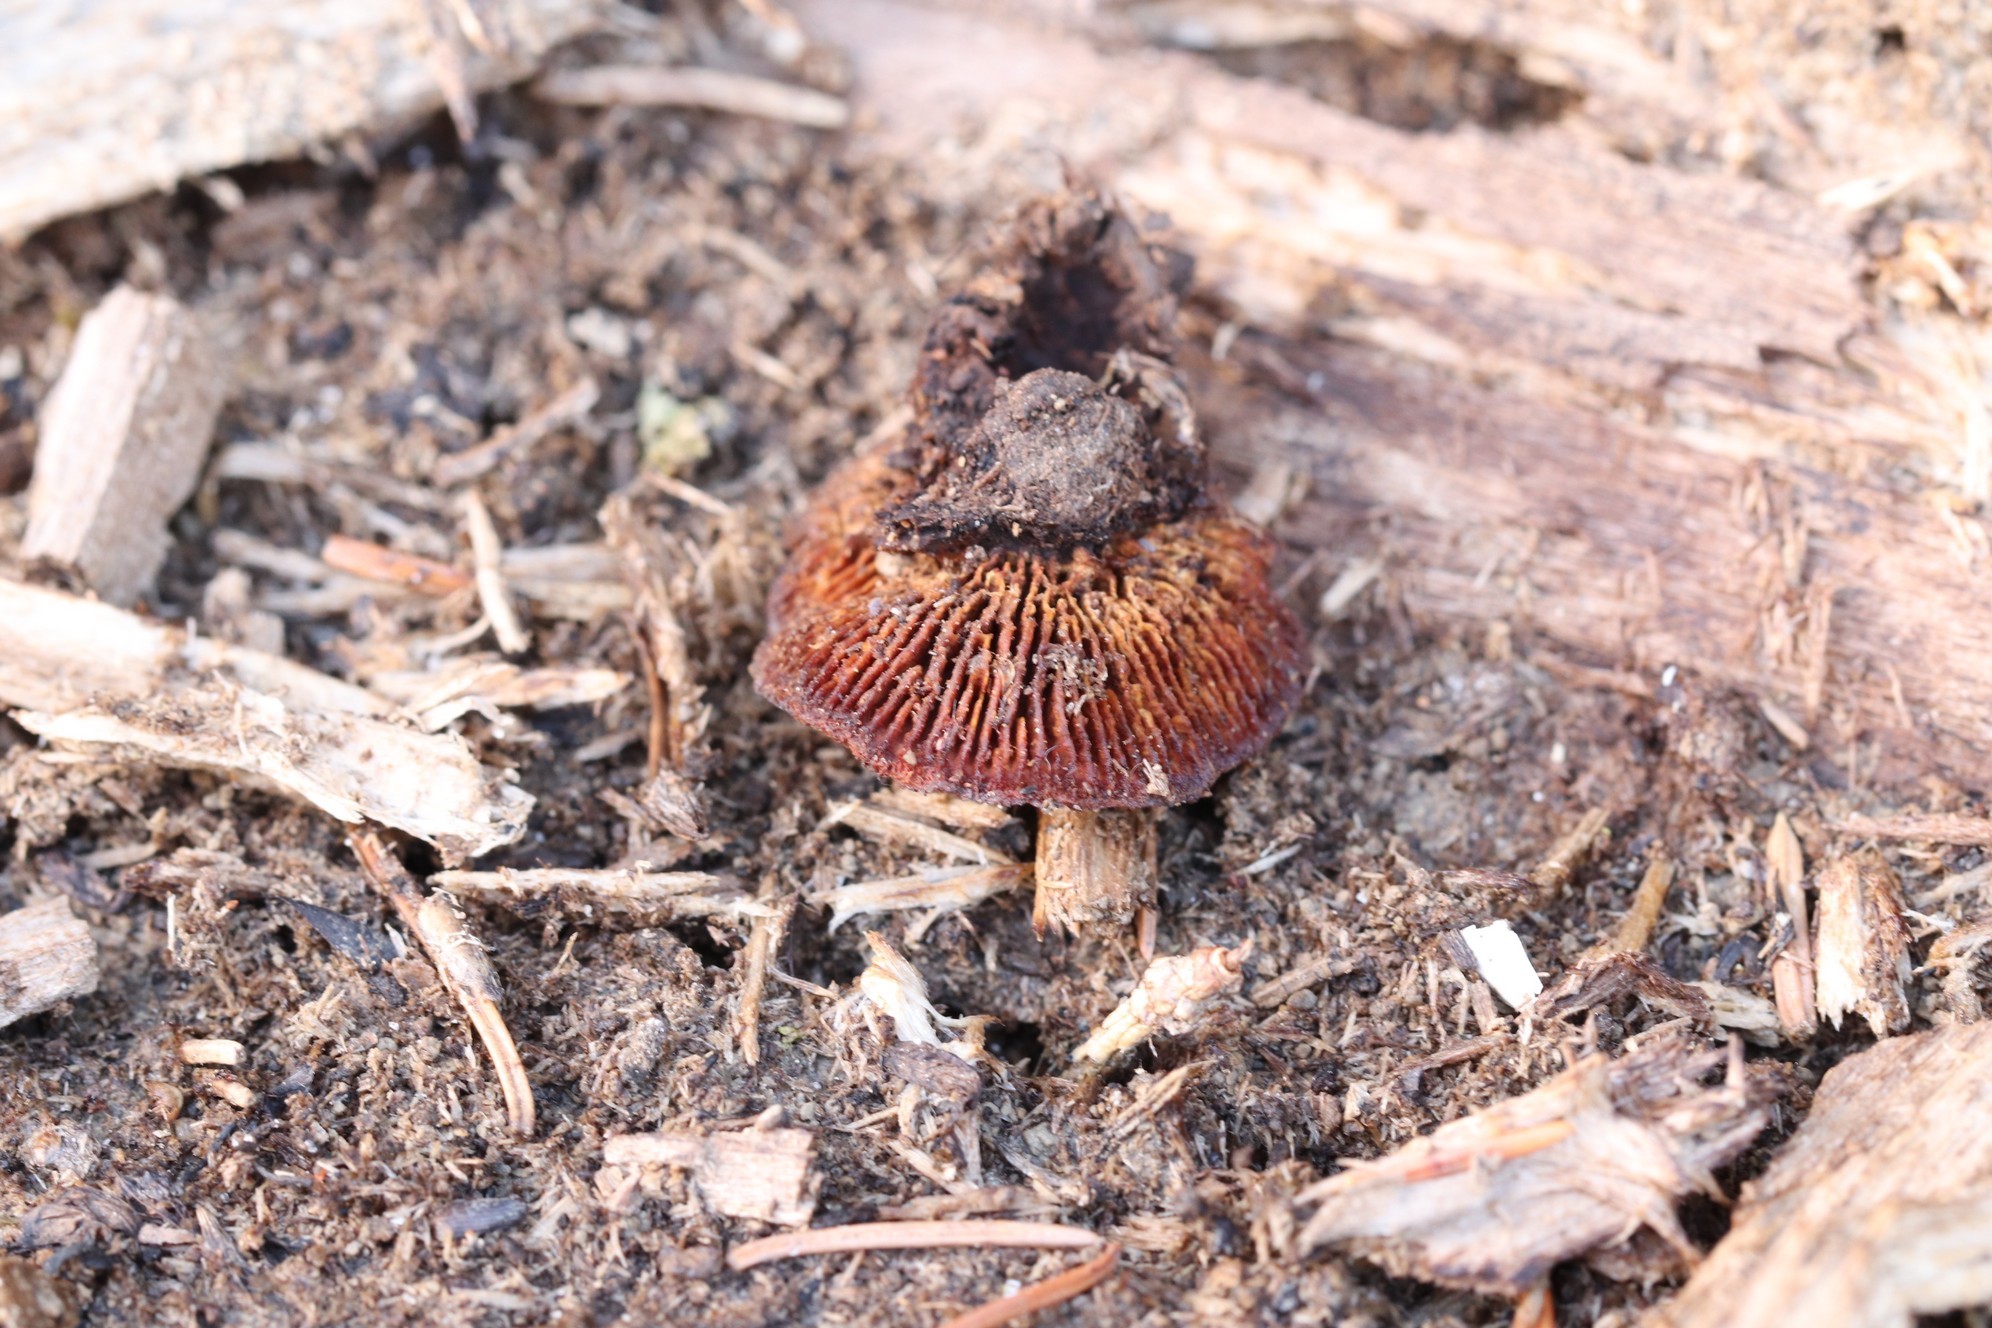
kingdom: Fungi
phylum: Basidiomycota
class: Agaricomycetes
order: Gloeophyllales
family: Gloeophyllaceae
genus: Gloeophyllum
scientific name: Gloeophyllum sepiarium
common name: Conifer mazegill
